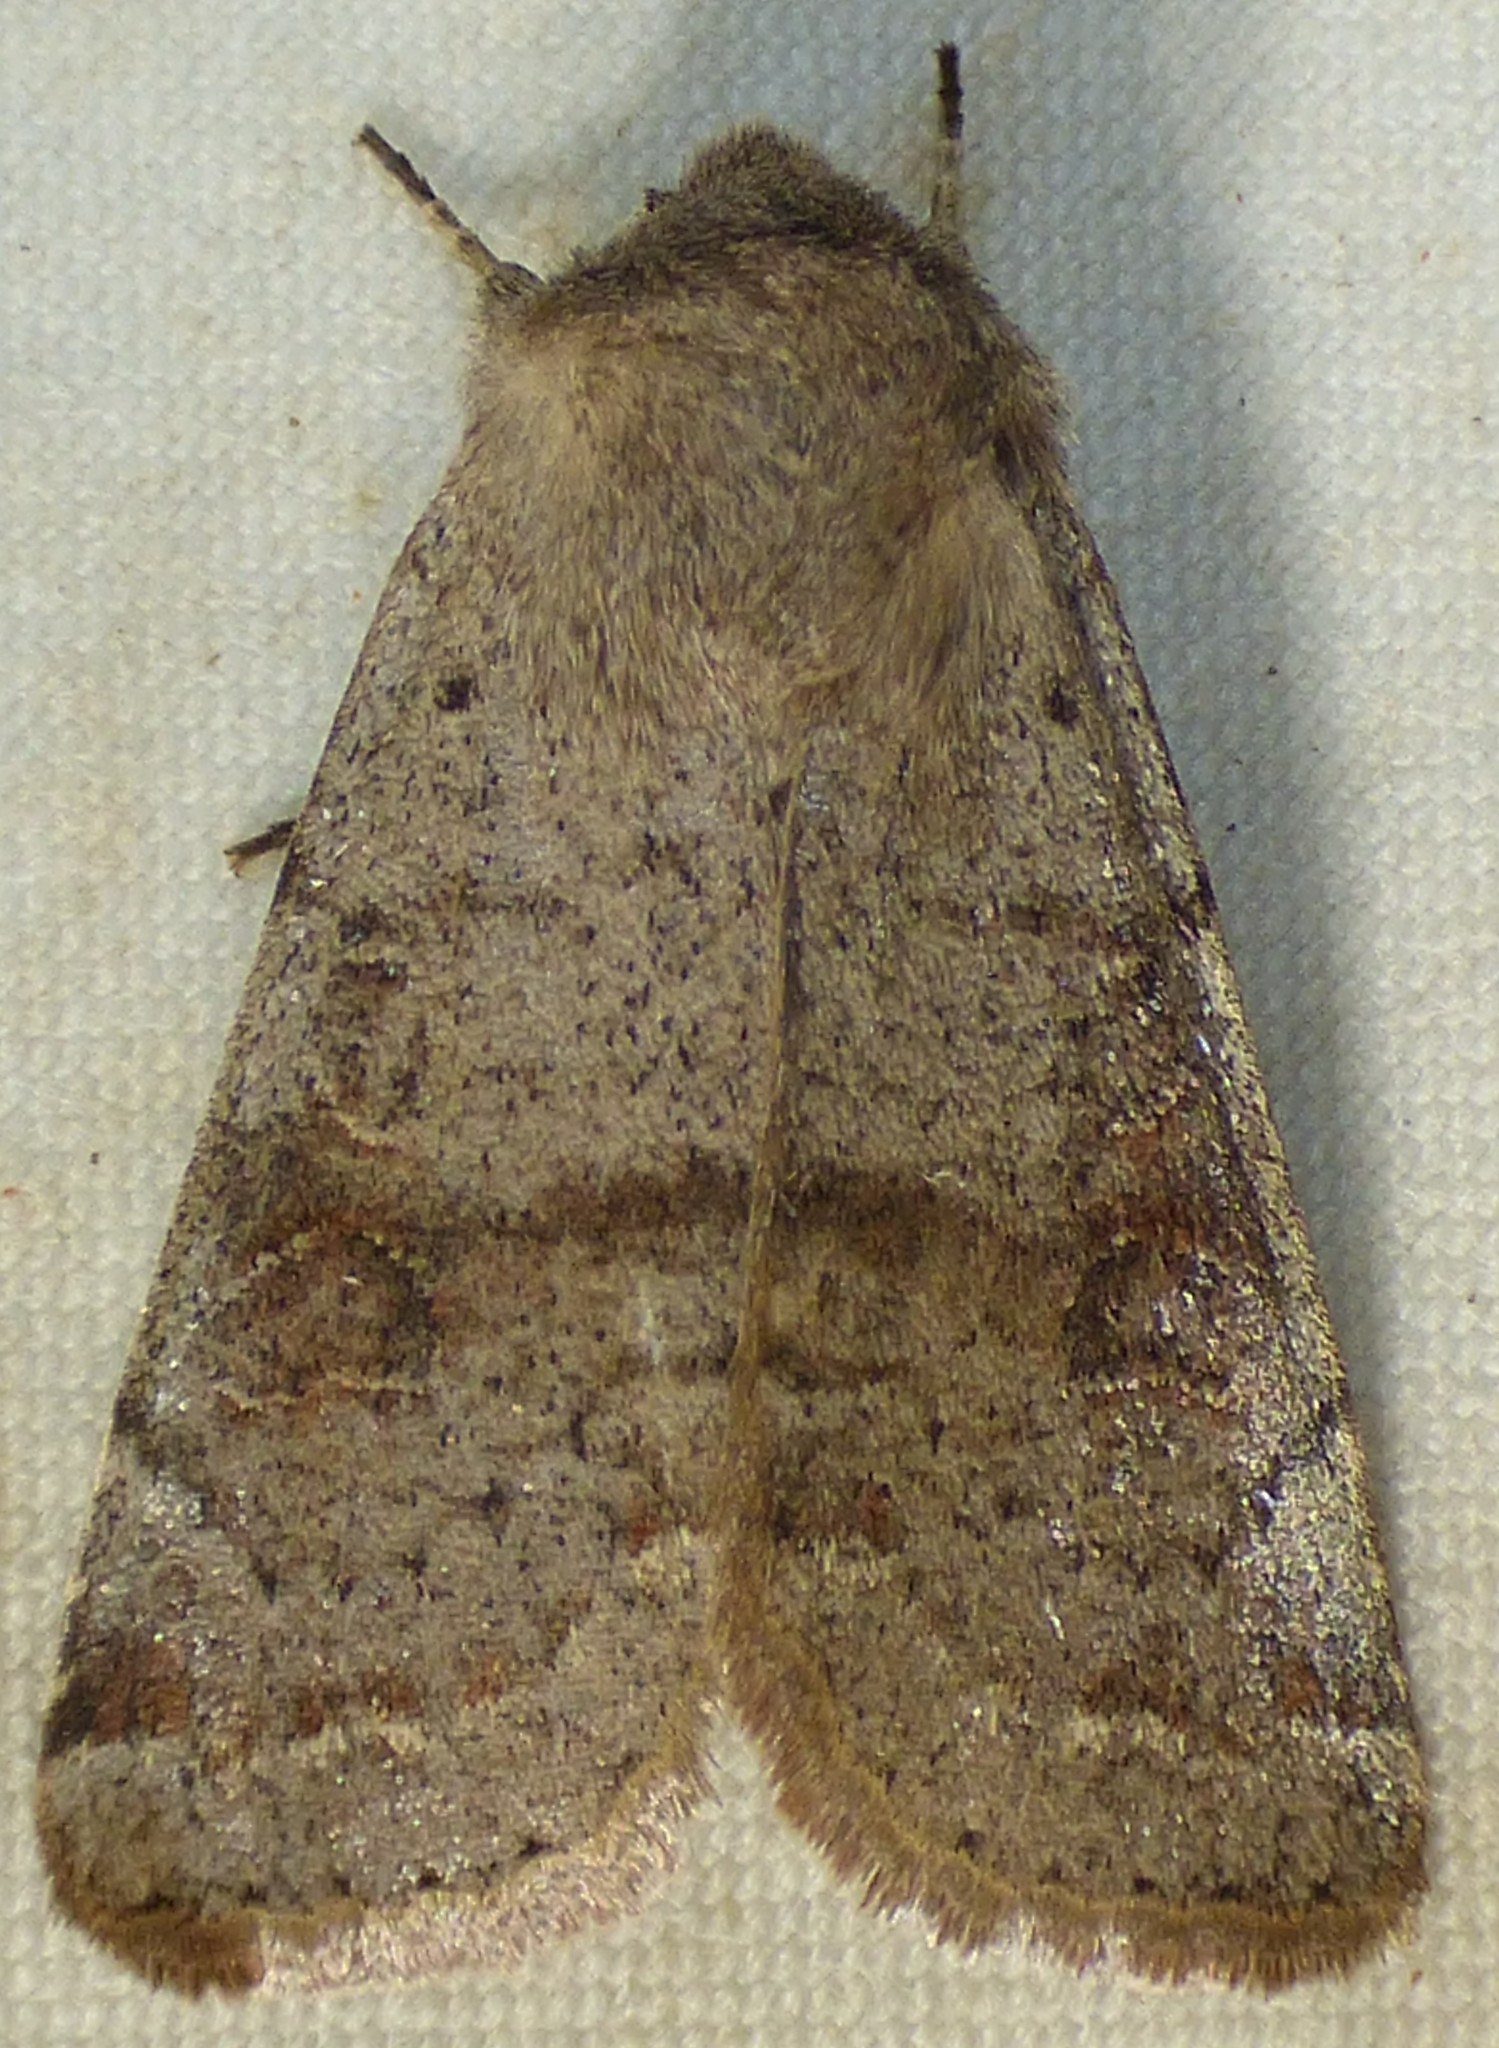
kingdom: Animalia
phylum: Arthropoda
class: Insecta
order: Lepidoptera
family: Noctuidae
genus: Orthosia
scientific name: Orthosia hibisci
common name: Green fruitworm
